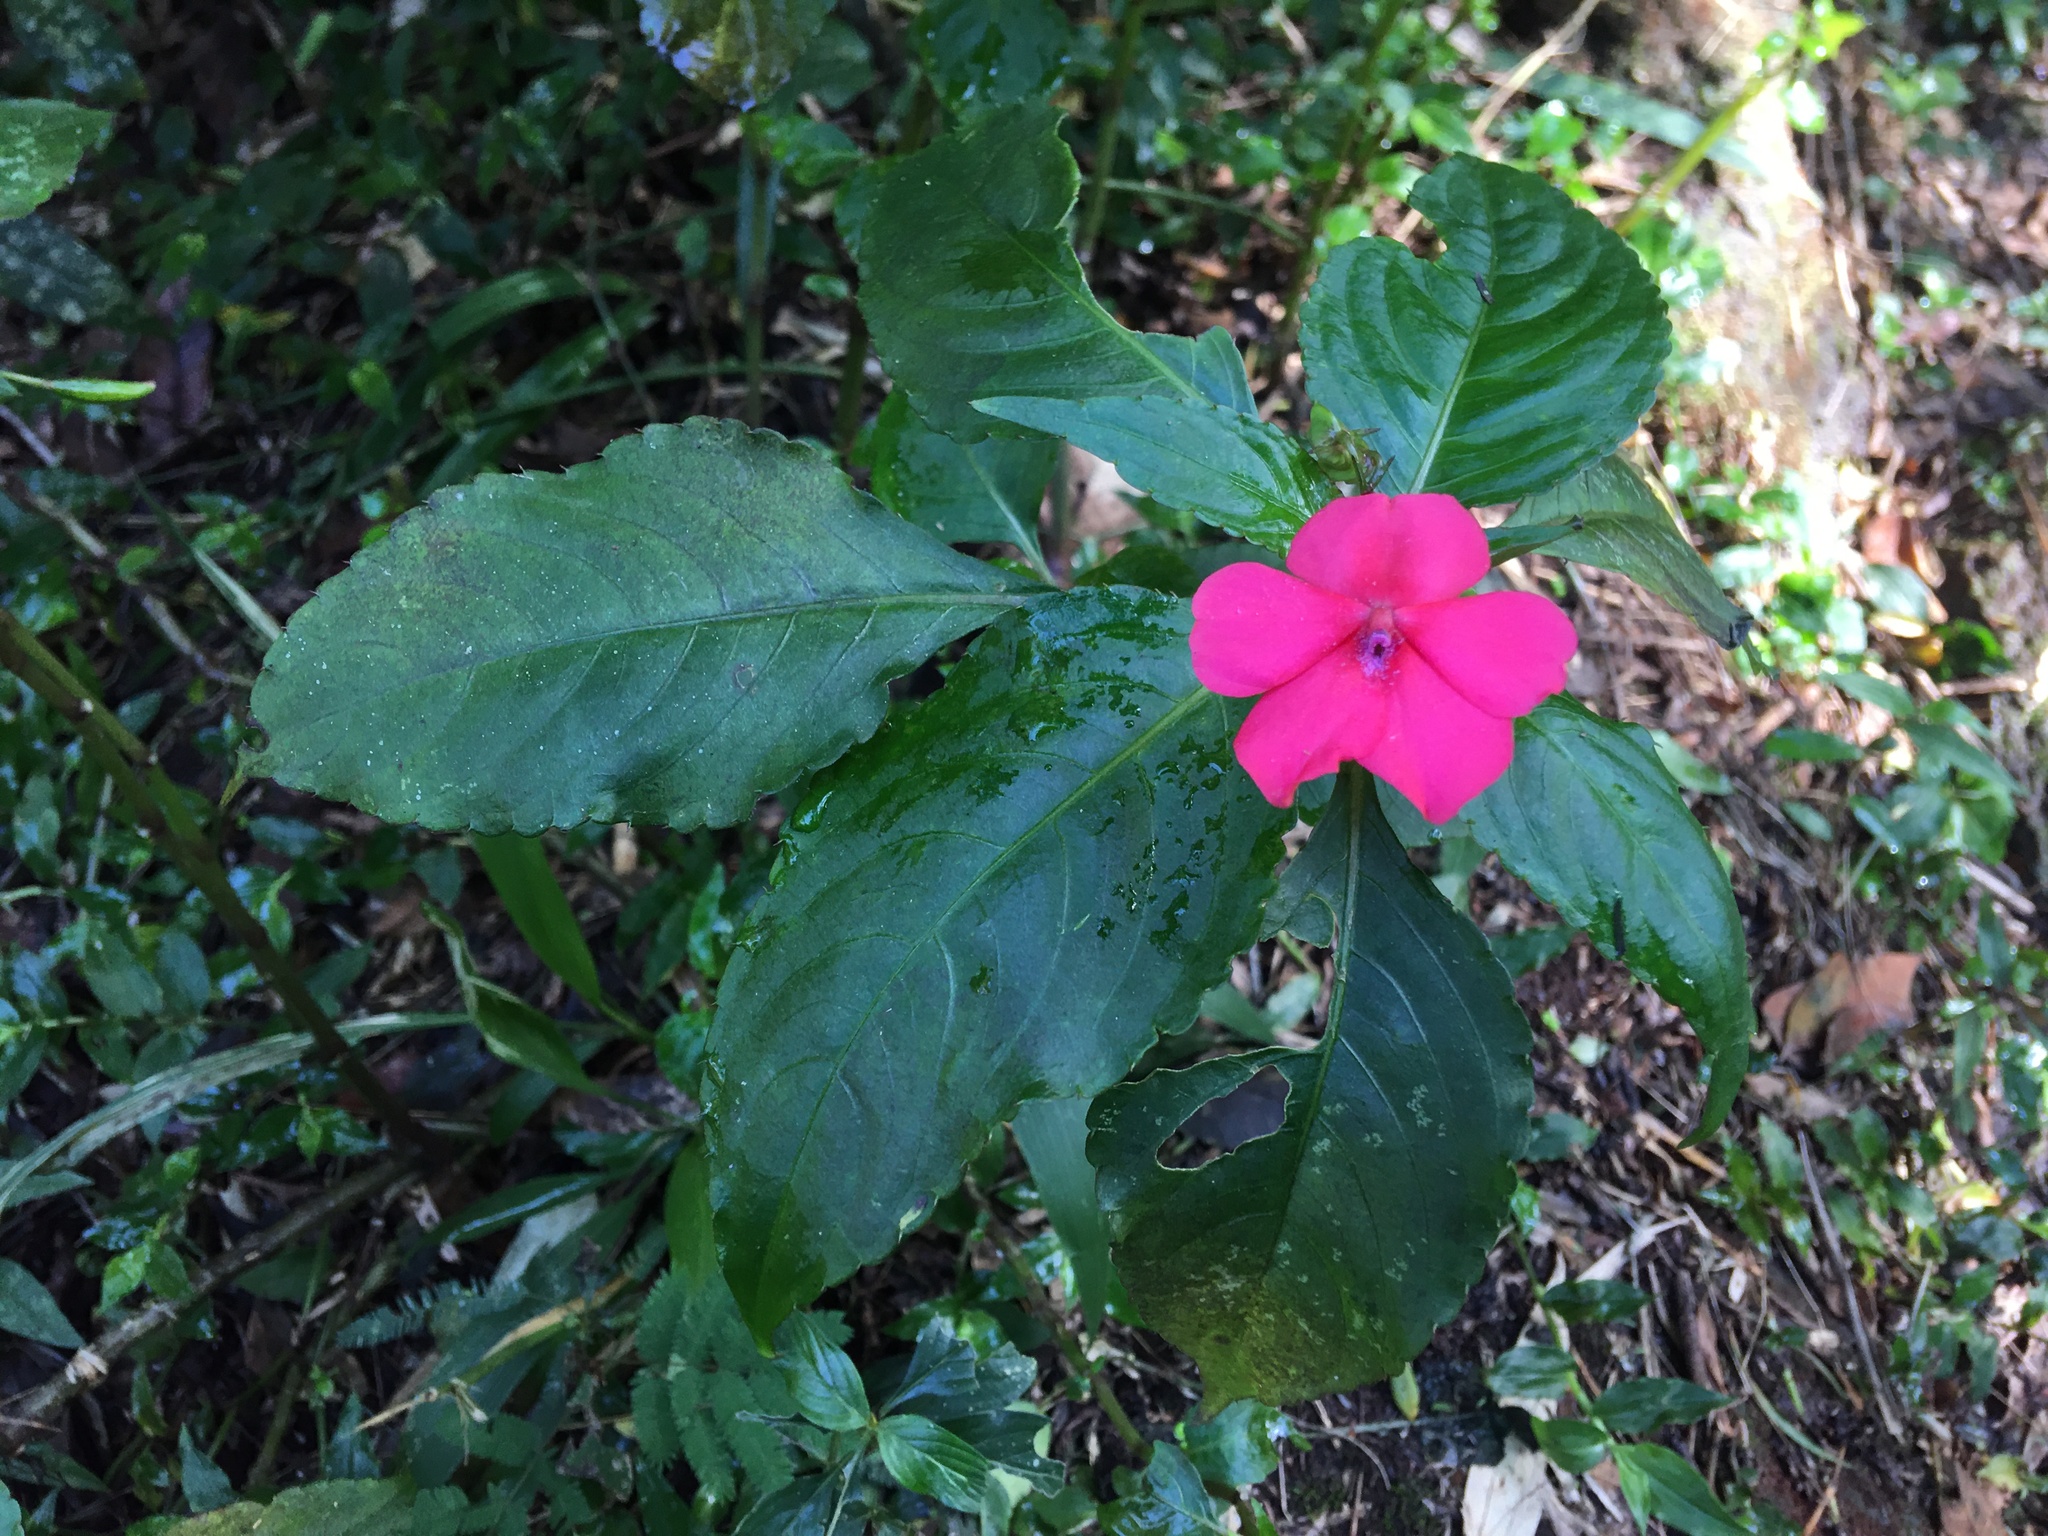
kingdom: Plantae
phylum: Tracheophyta
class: Magnoliopsida
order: Ericales
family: Balsaminaceae
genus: Impatiens
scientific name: Impatiens walleriana
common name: Buzzy lizzy
